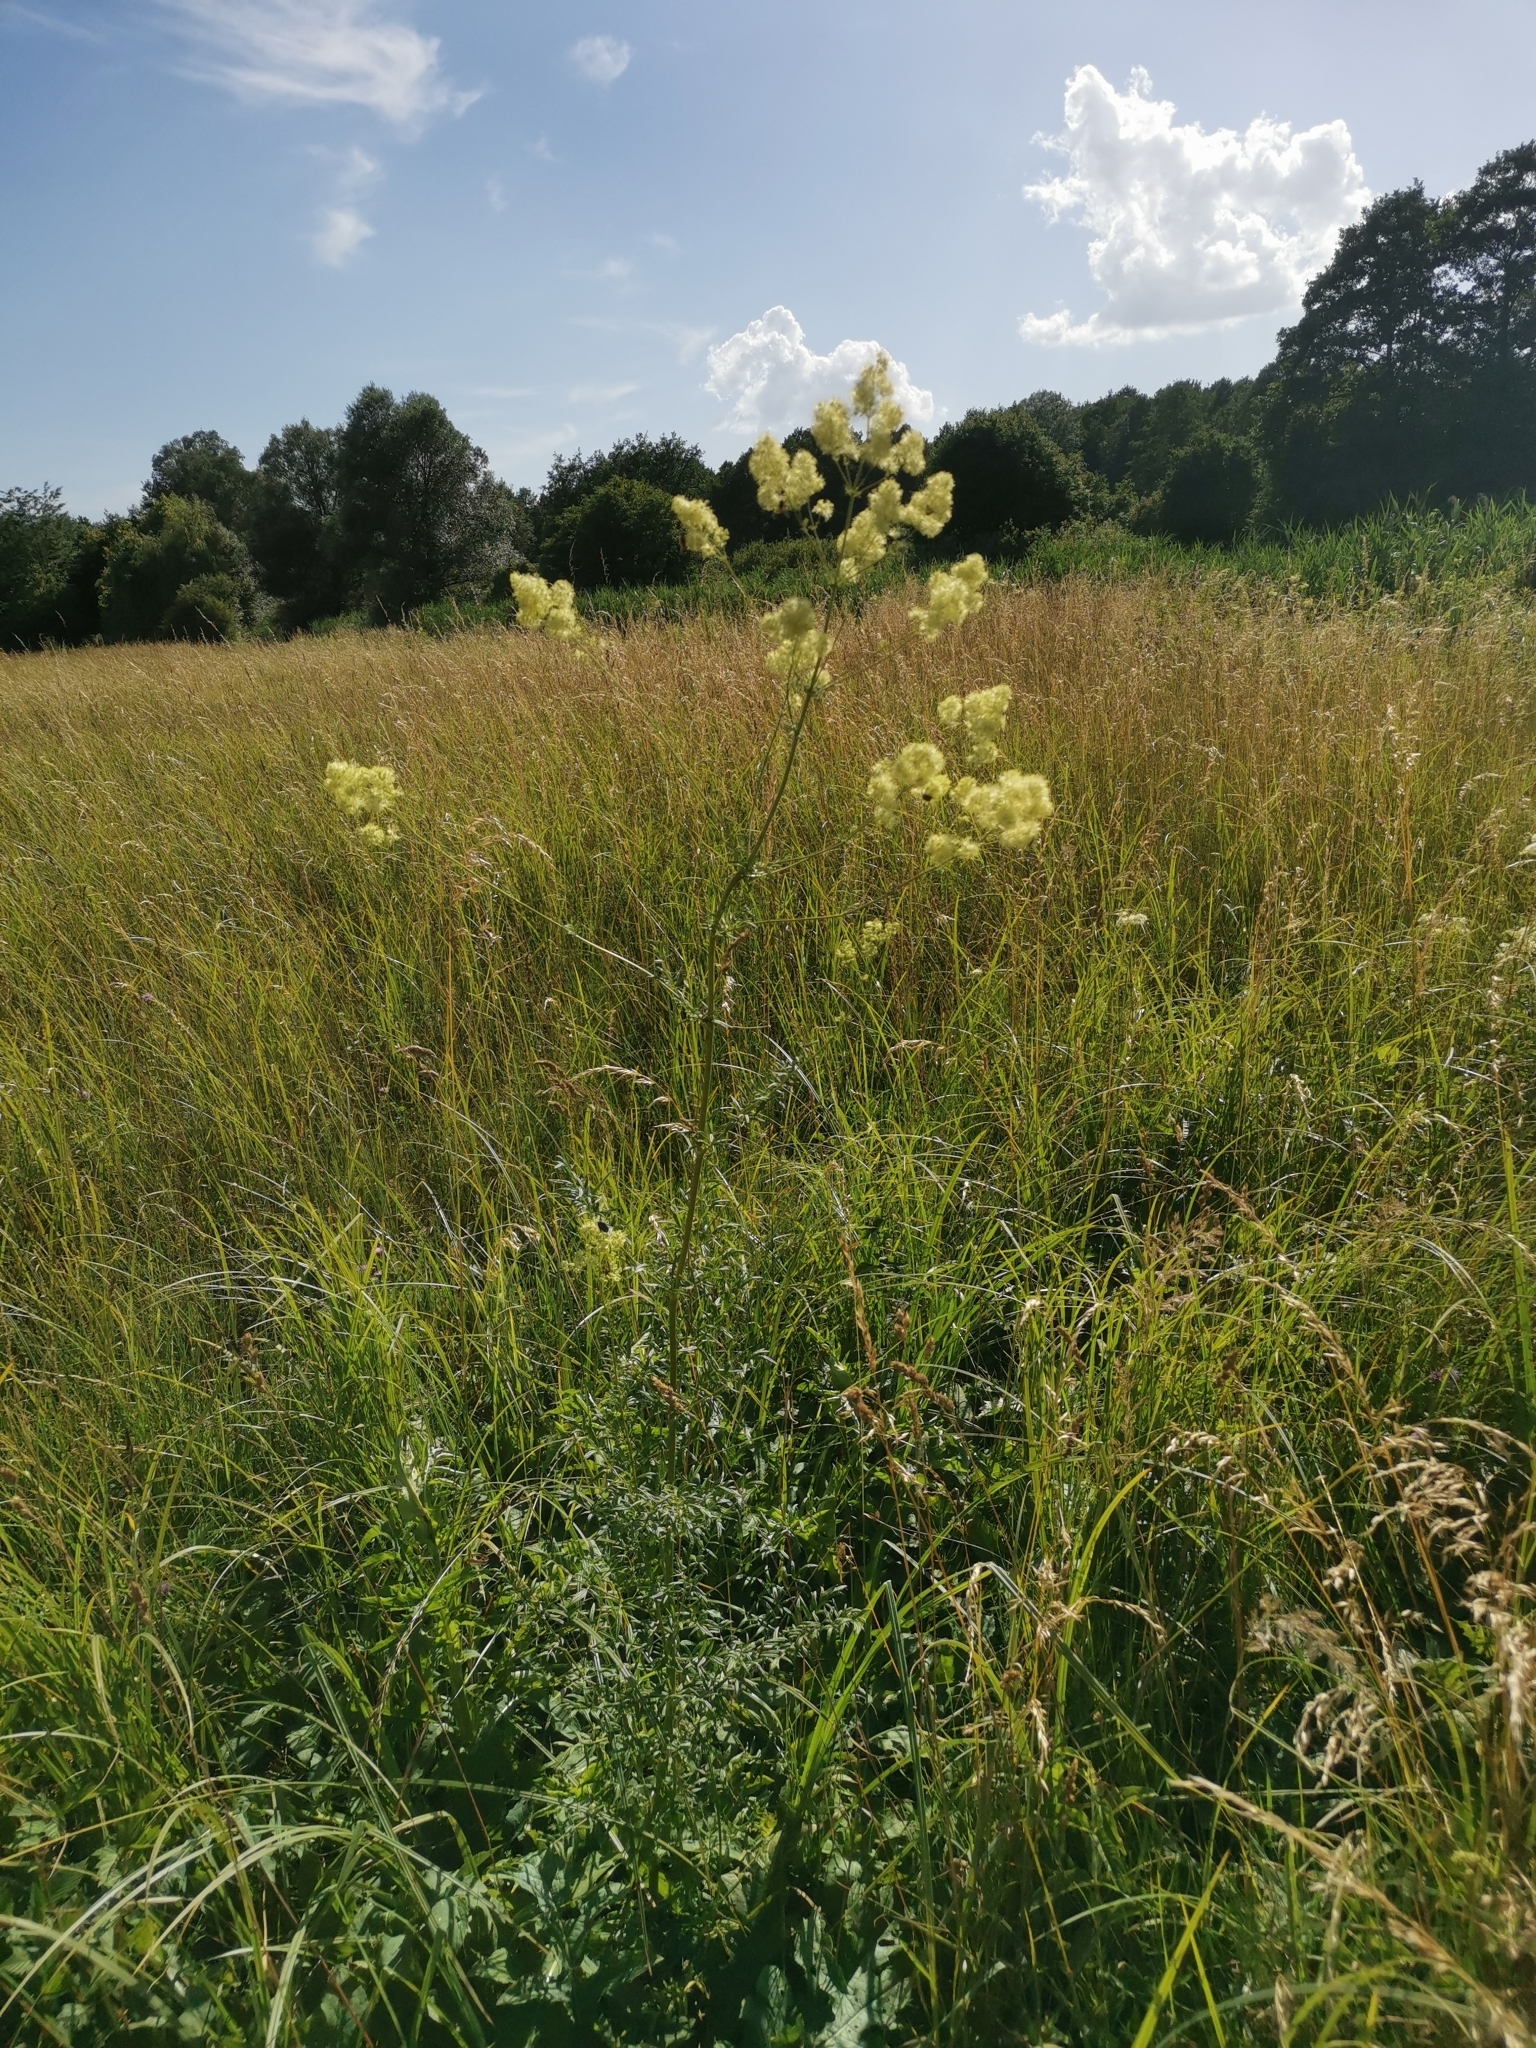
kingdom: Plantae
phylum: Tracheophyta
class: Magnoliopsida
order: Ranunculales
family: Ranunculaceae
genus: Thalictrum
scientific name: Thalictrum lucidum
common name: Shining meadow-rue
